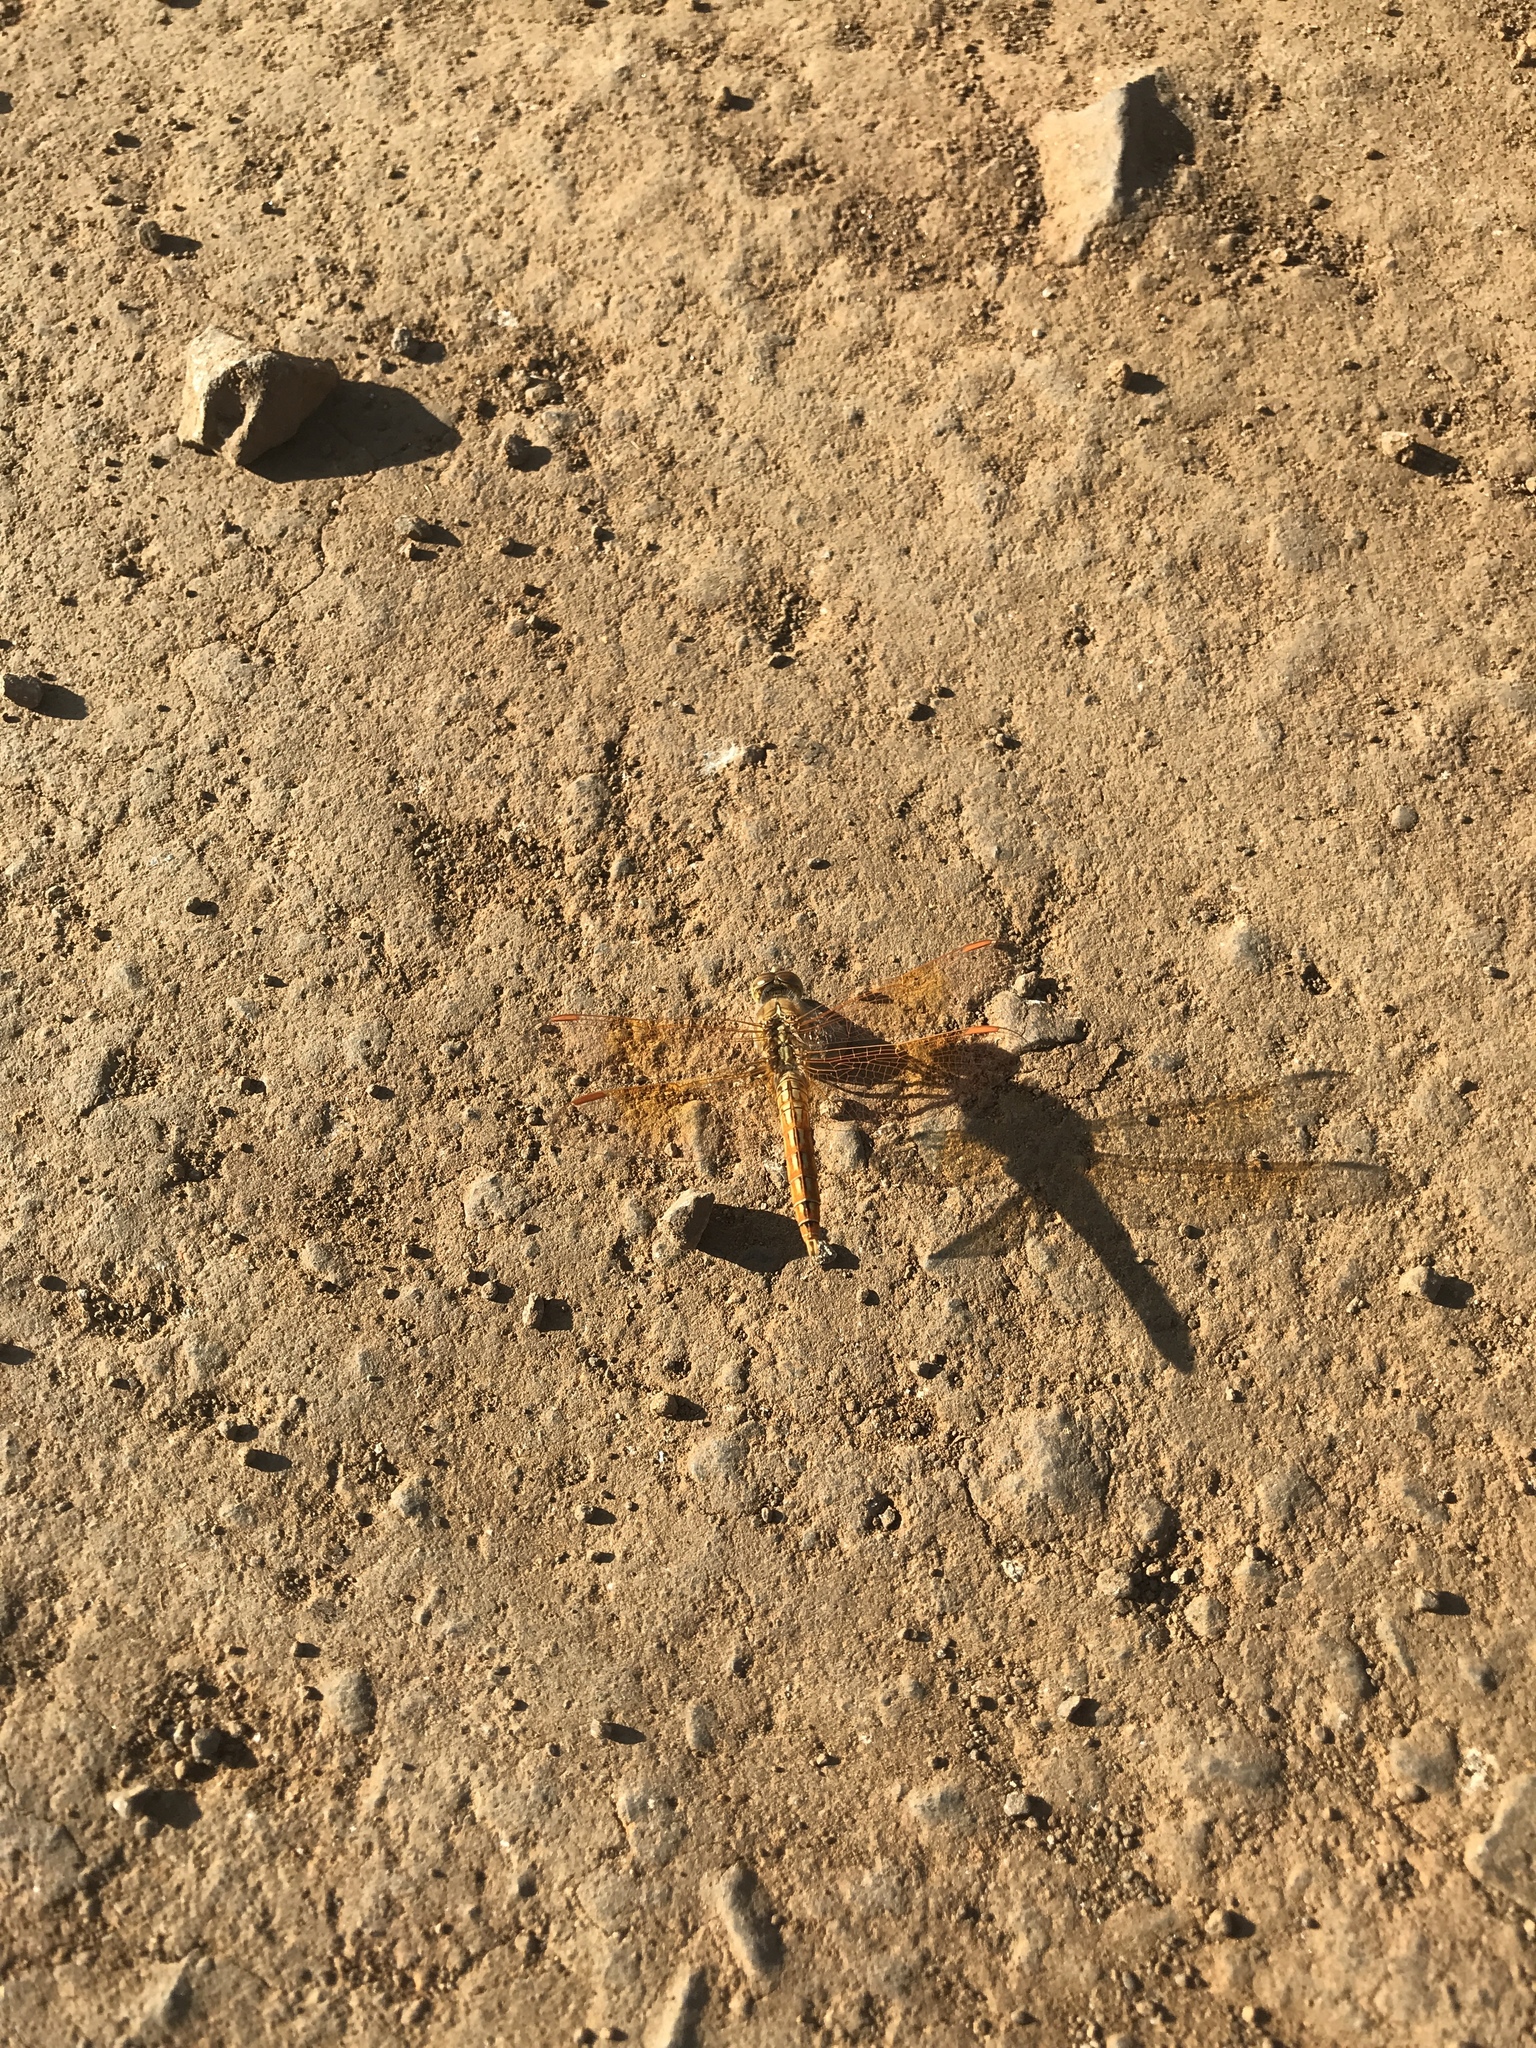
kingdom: Animalia
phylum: Arthropoda
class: Insecta
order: Odonata
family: Libellulidae
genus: Brachythemis
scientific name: Brachythemis contaminata
